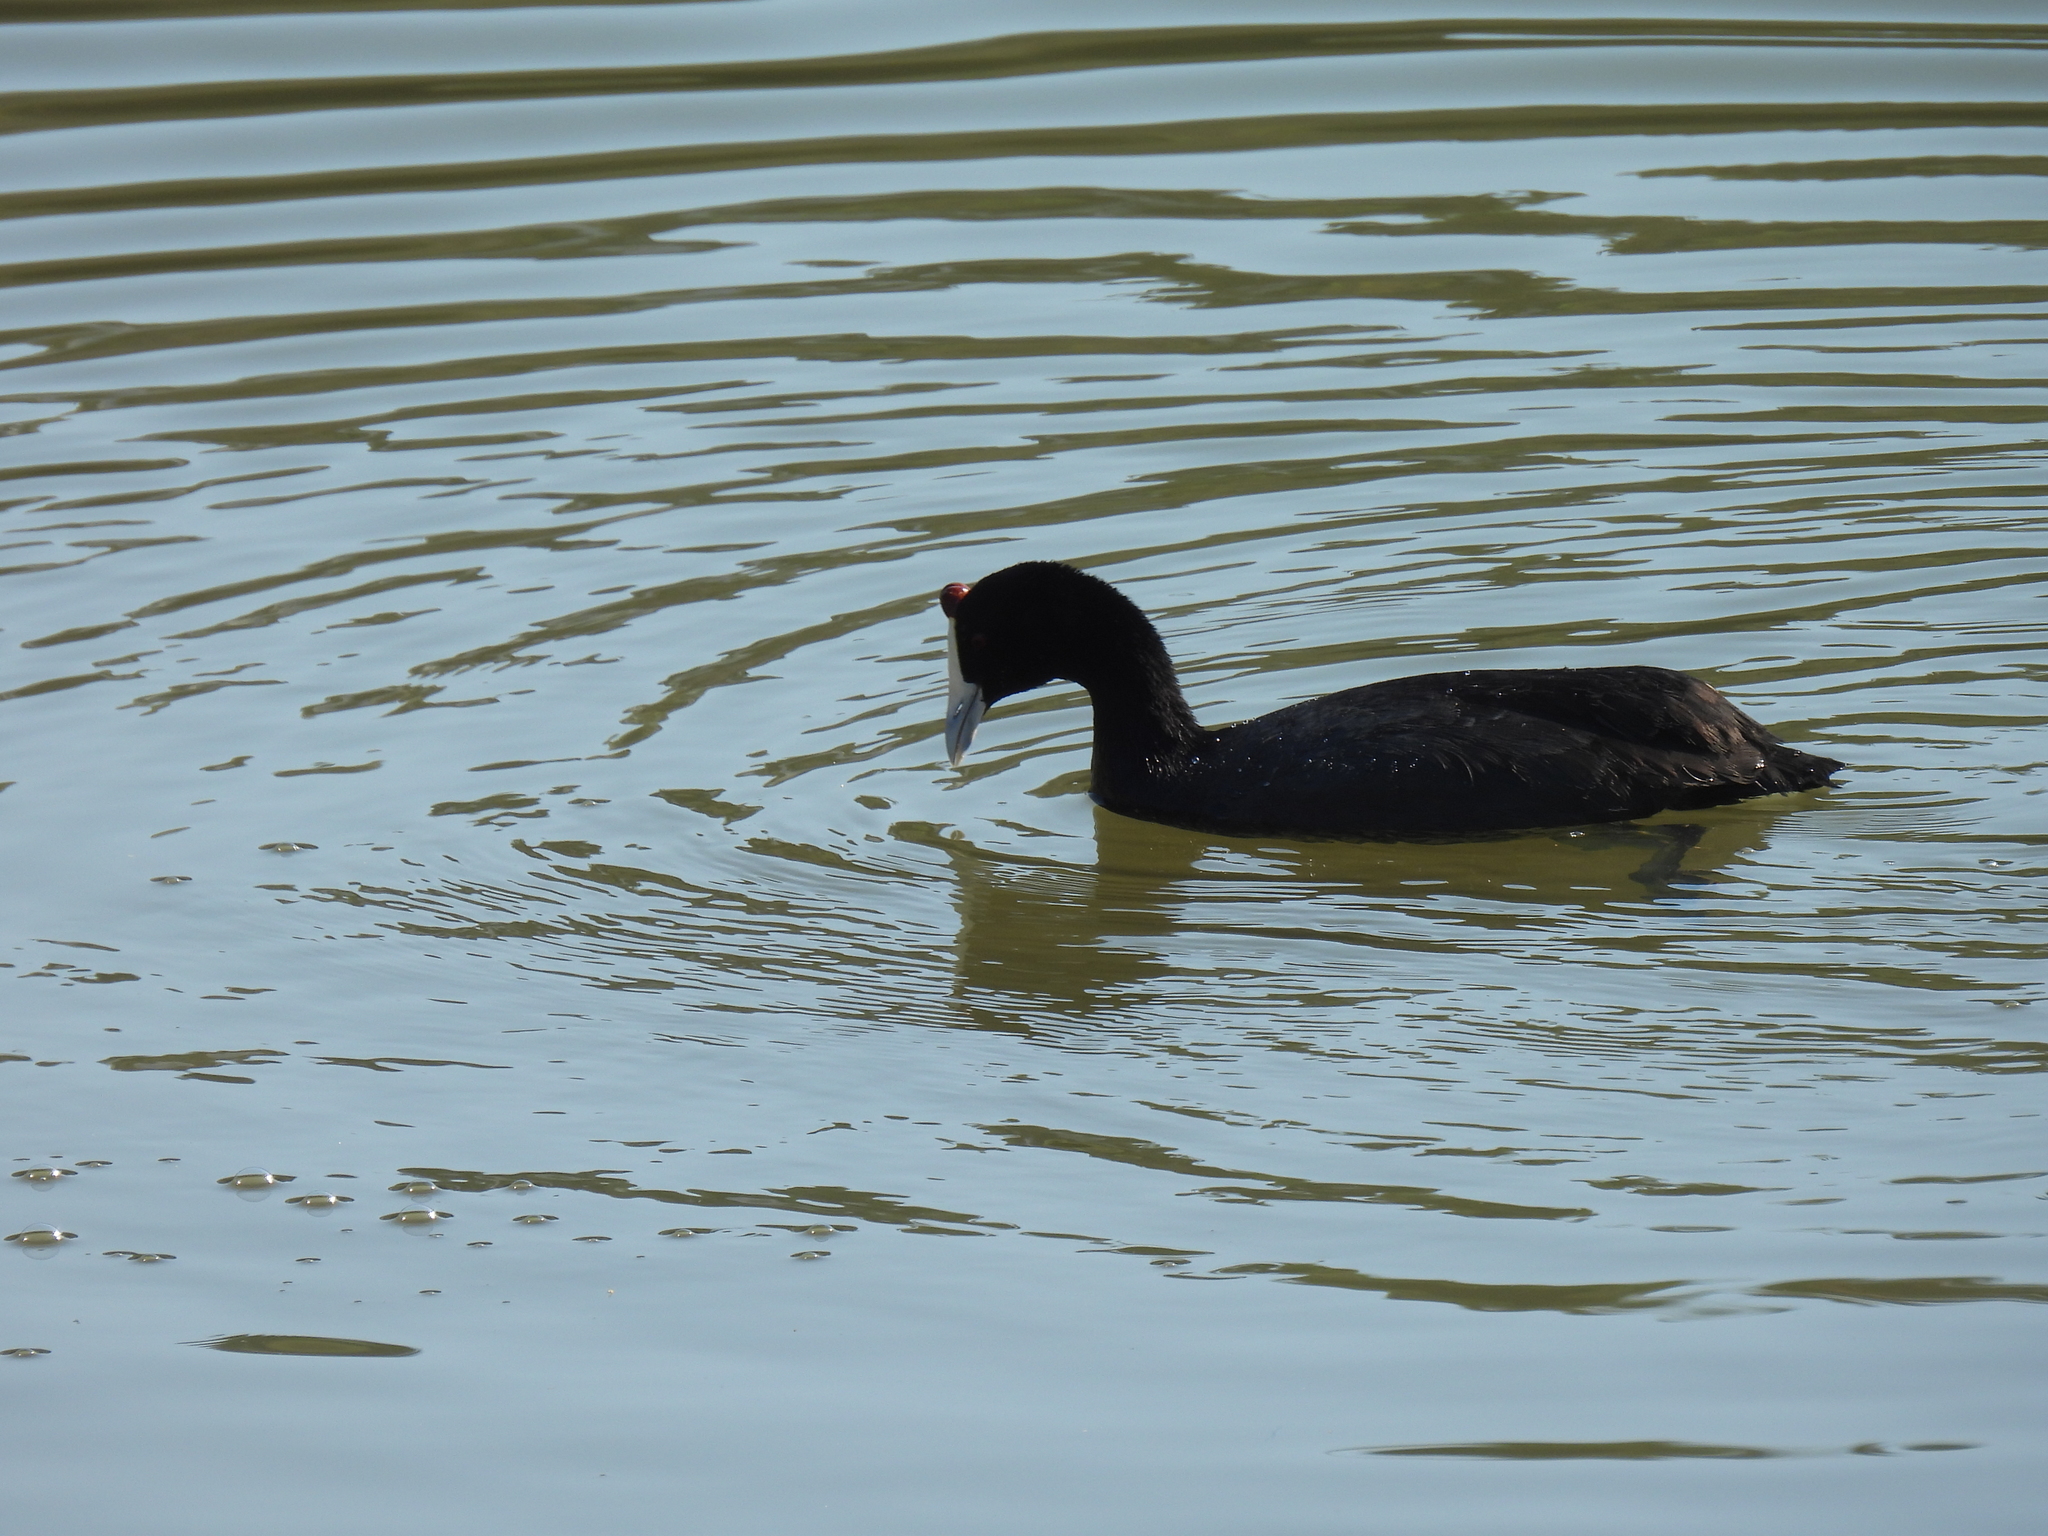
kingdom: Animalia
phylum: Chordata
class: Aves
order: Gruiformes
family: Rallidae
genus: Fulica
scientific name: Fulica cristata
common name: Red-knobbed coot
